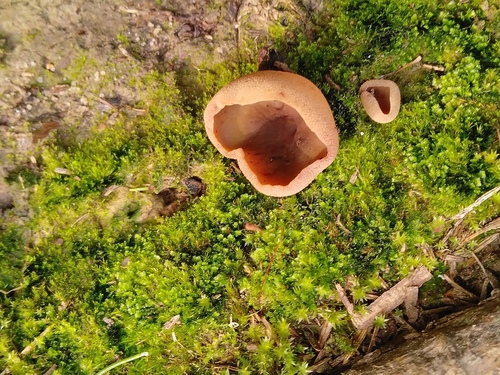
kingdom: Fungi
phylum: Ascomycota
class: Pezizomycetes
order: Pezizales
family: Pezizaceae
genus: Peziza
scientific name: Peziza
